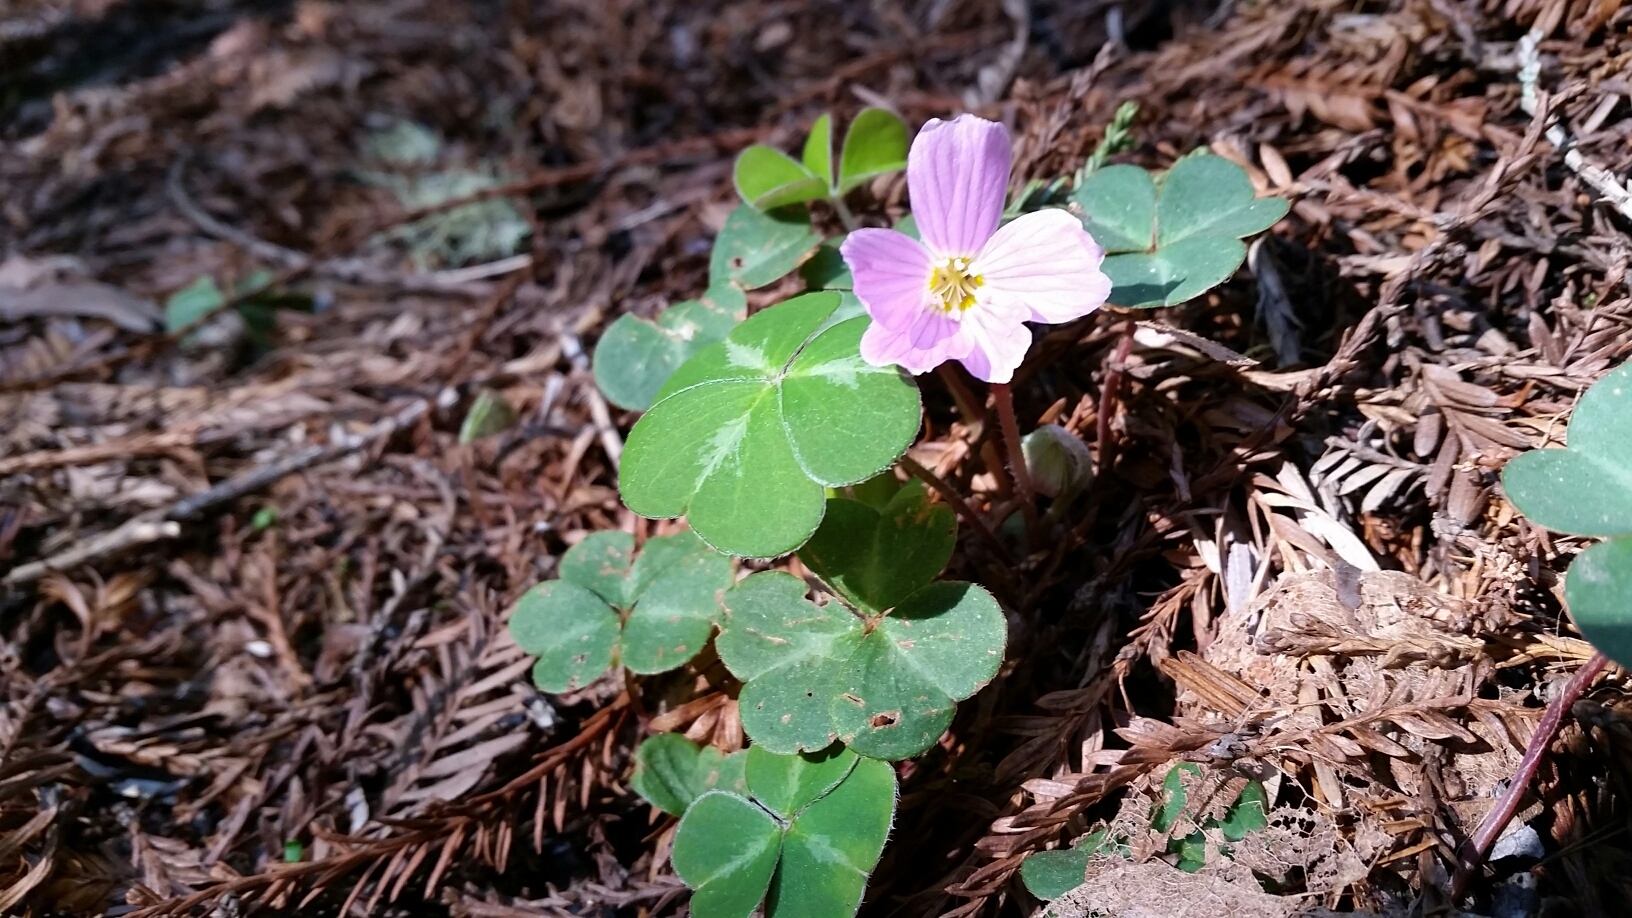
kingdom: Plantae
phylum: Tracheophyta
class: Magnoliopsida
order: Oxalidales
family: Oxalidaceae
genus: Oxalis
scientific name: Oxalis oregana
